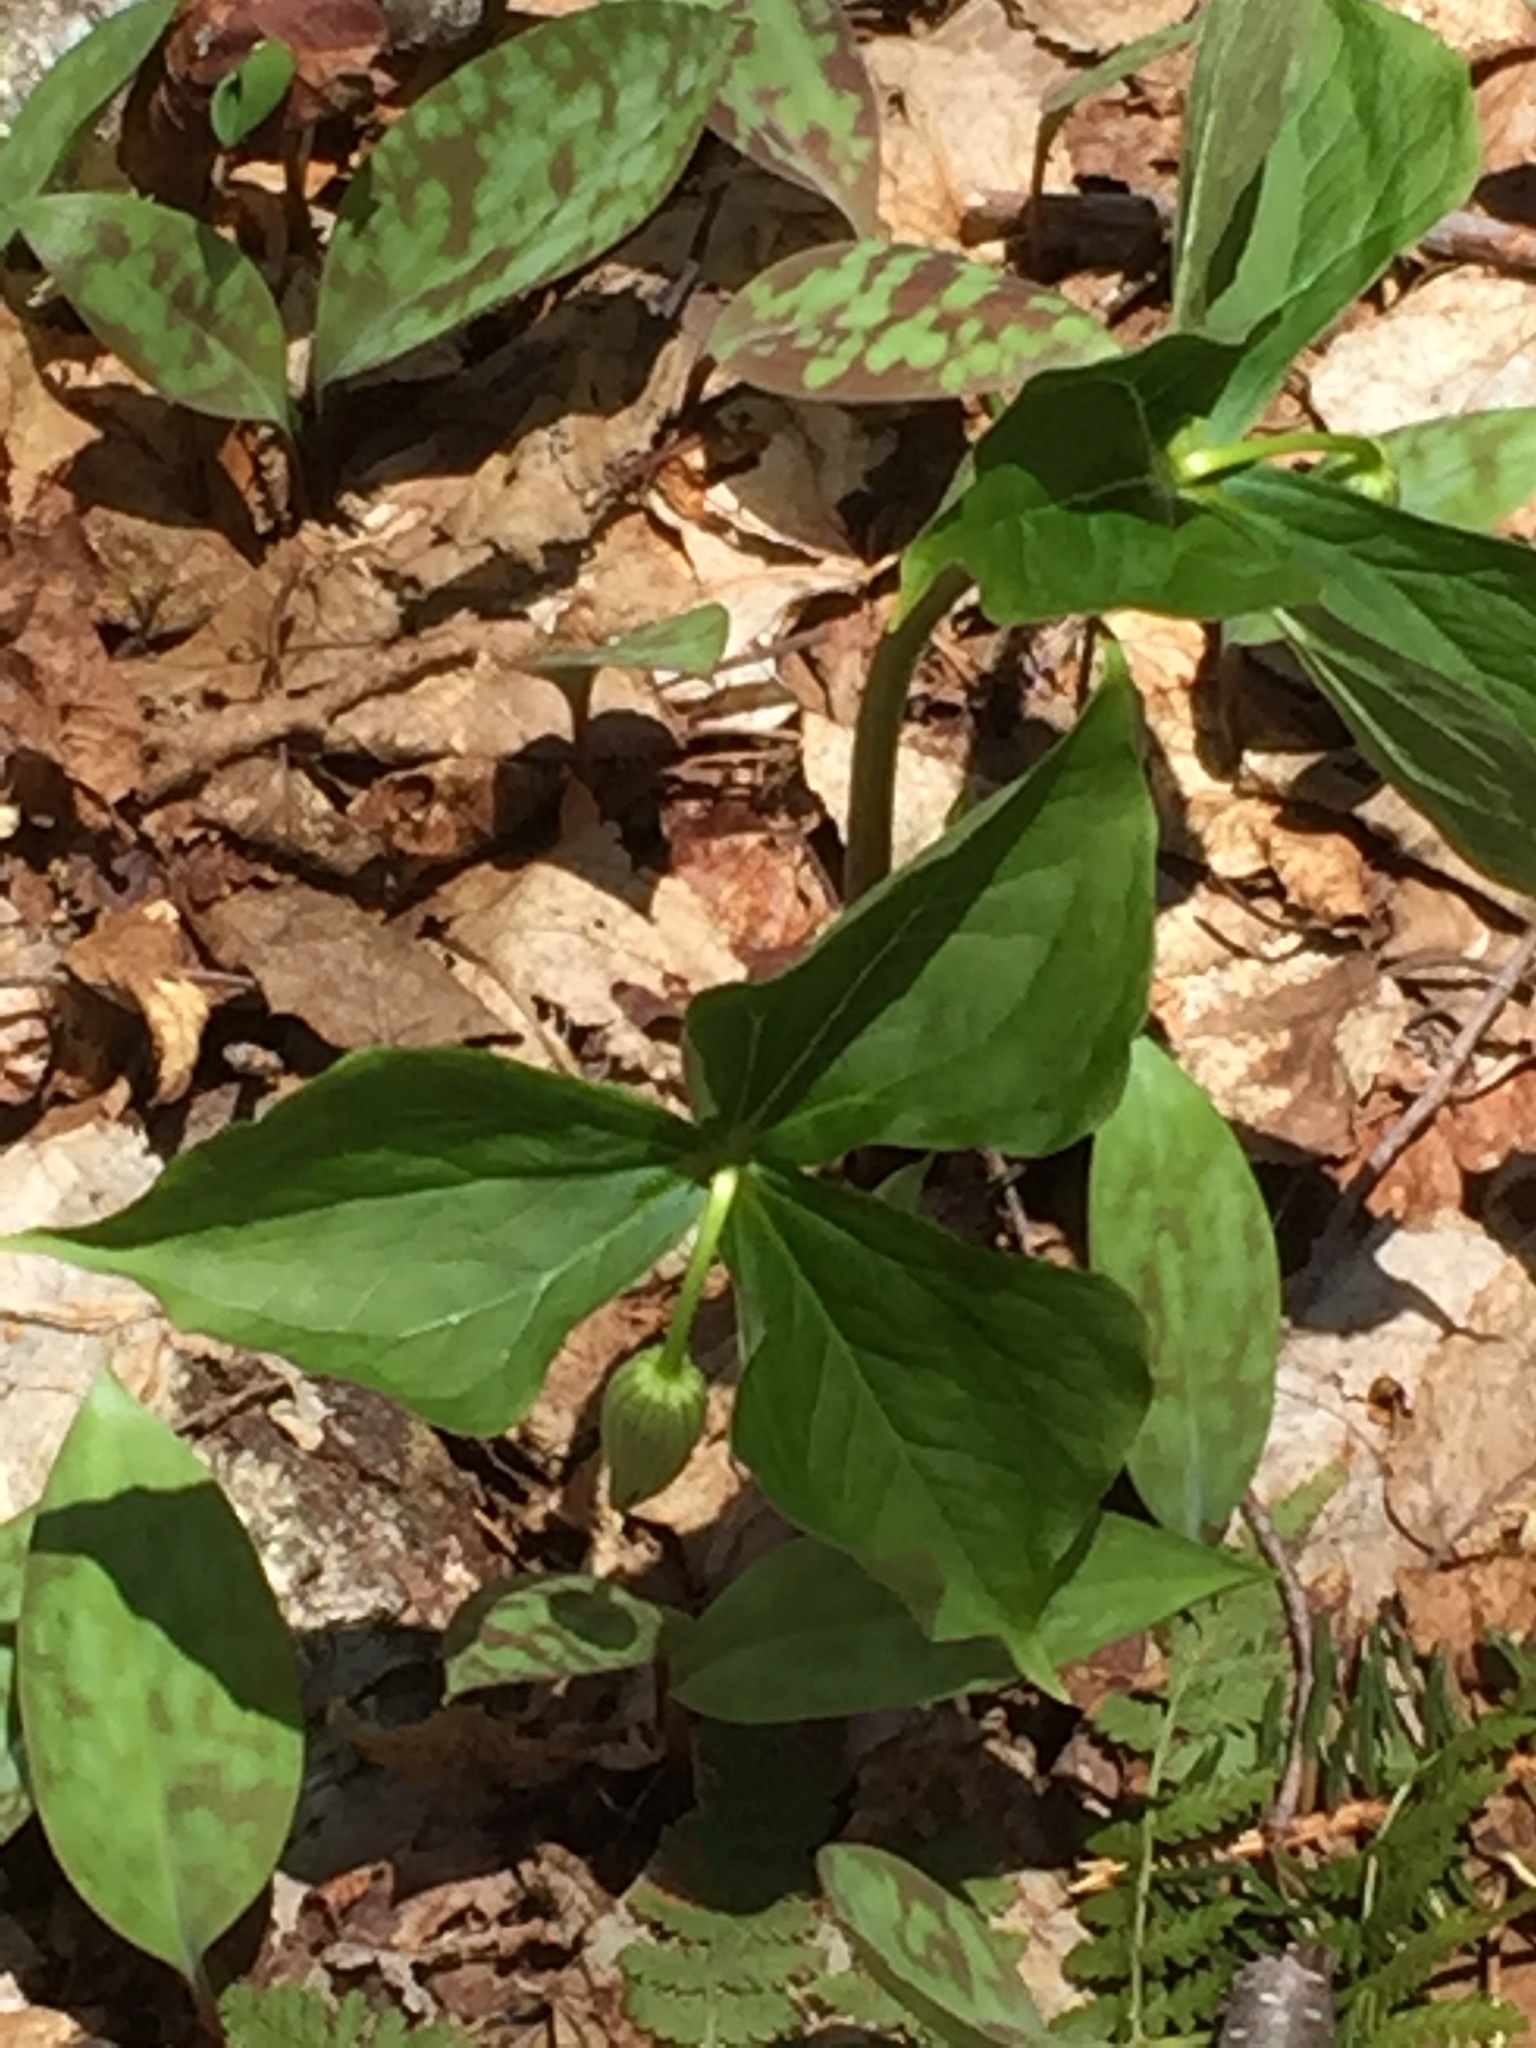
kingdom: Plantae
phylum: Tracheophyta
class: Liliopsida
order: Liliales
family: Melanthiaceae
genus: Trillium
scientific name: Trillium erectum
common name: Purple trillium
